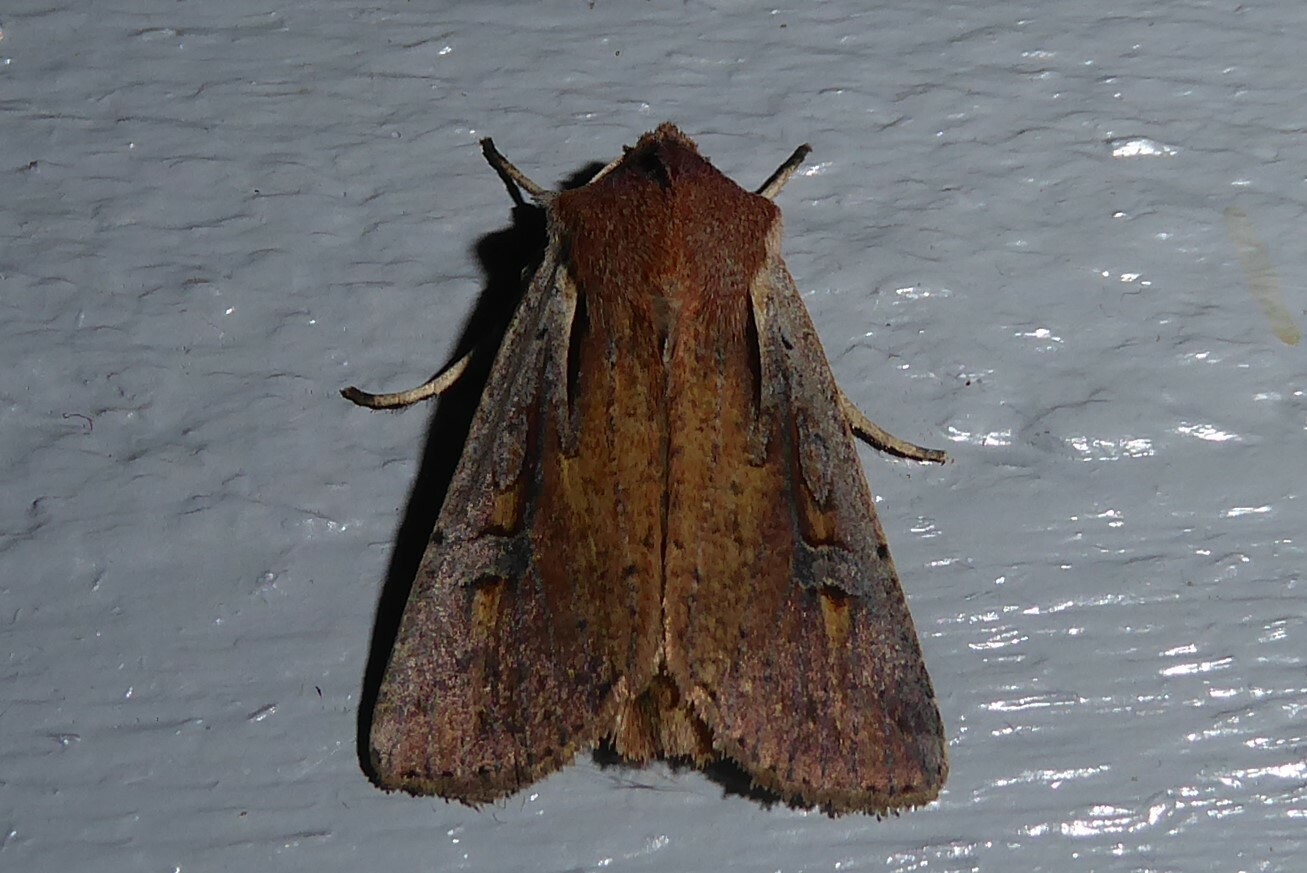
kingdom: Animalia
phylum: Arthropoda
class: Insecta
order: Lepidoptera
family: Noctuidae
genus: Ichneutica
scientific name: Ichneutica atristriga
